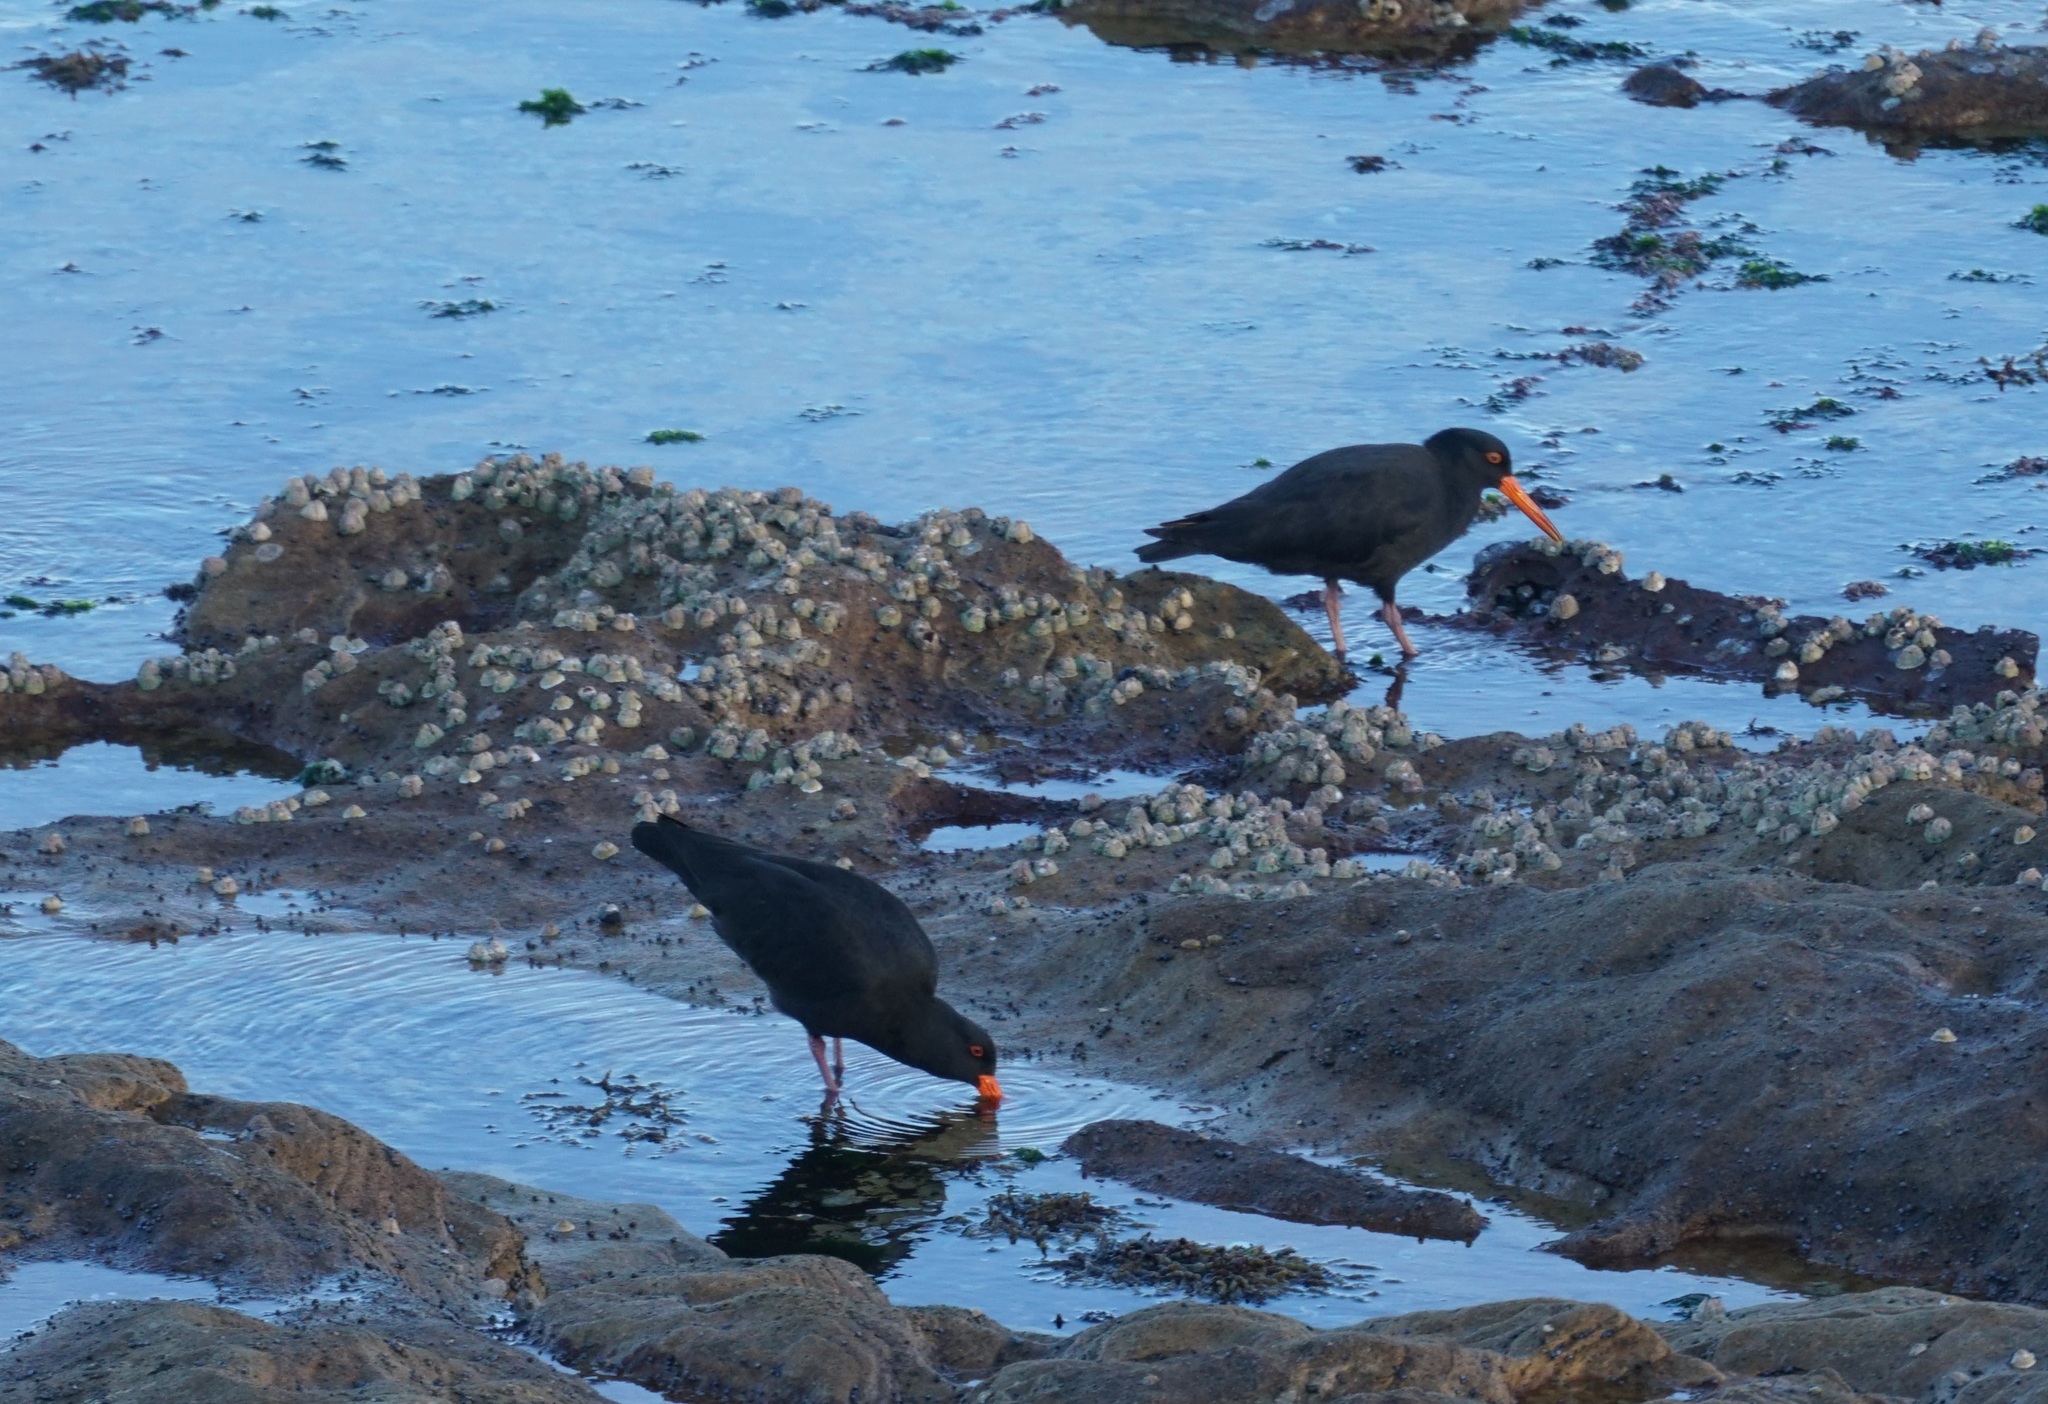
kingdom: Animalia
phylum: Chordata
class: Aves
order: Charadriiformes
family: Haematopodidae
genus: Haematopus
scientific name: Haematopus fuliginosus
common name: Sooty oystercatcher
